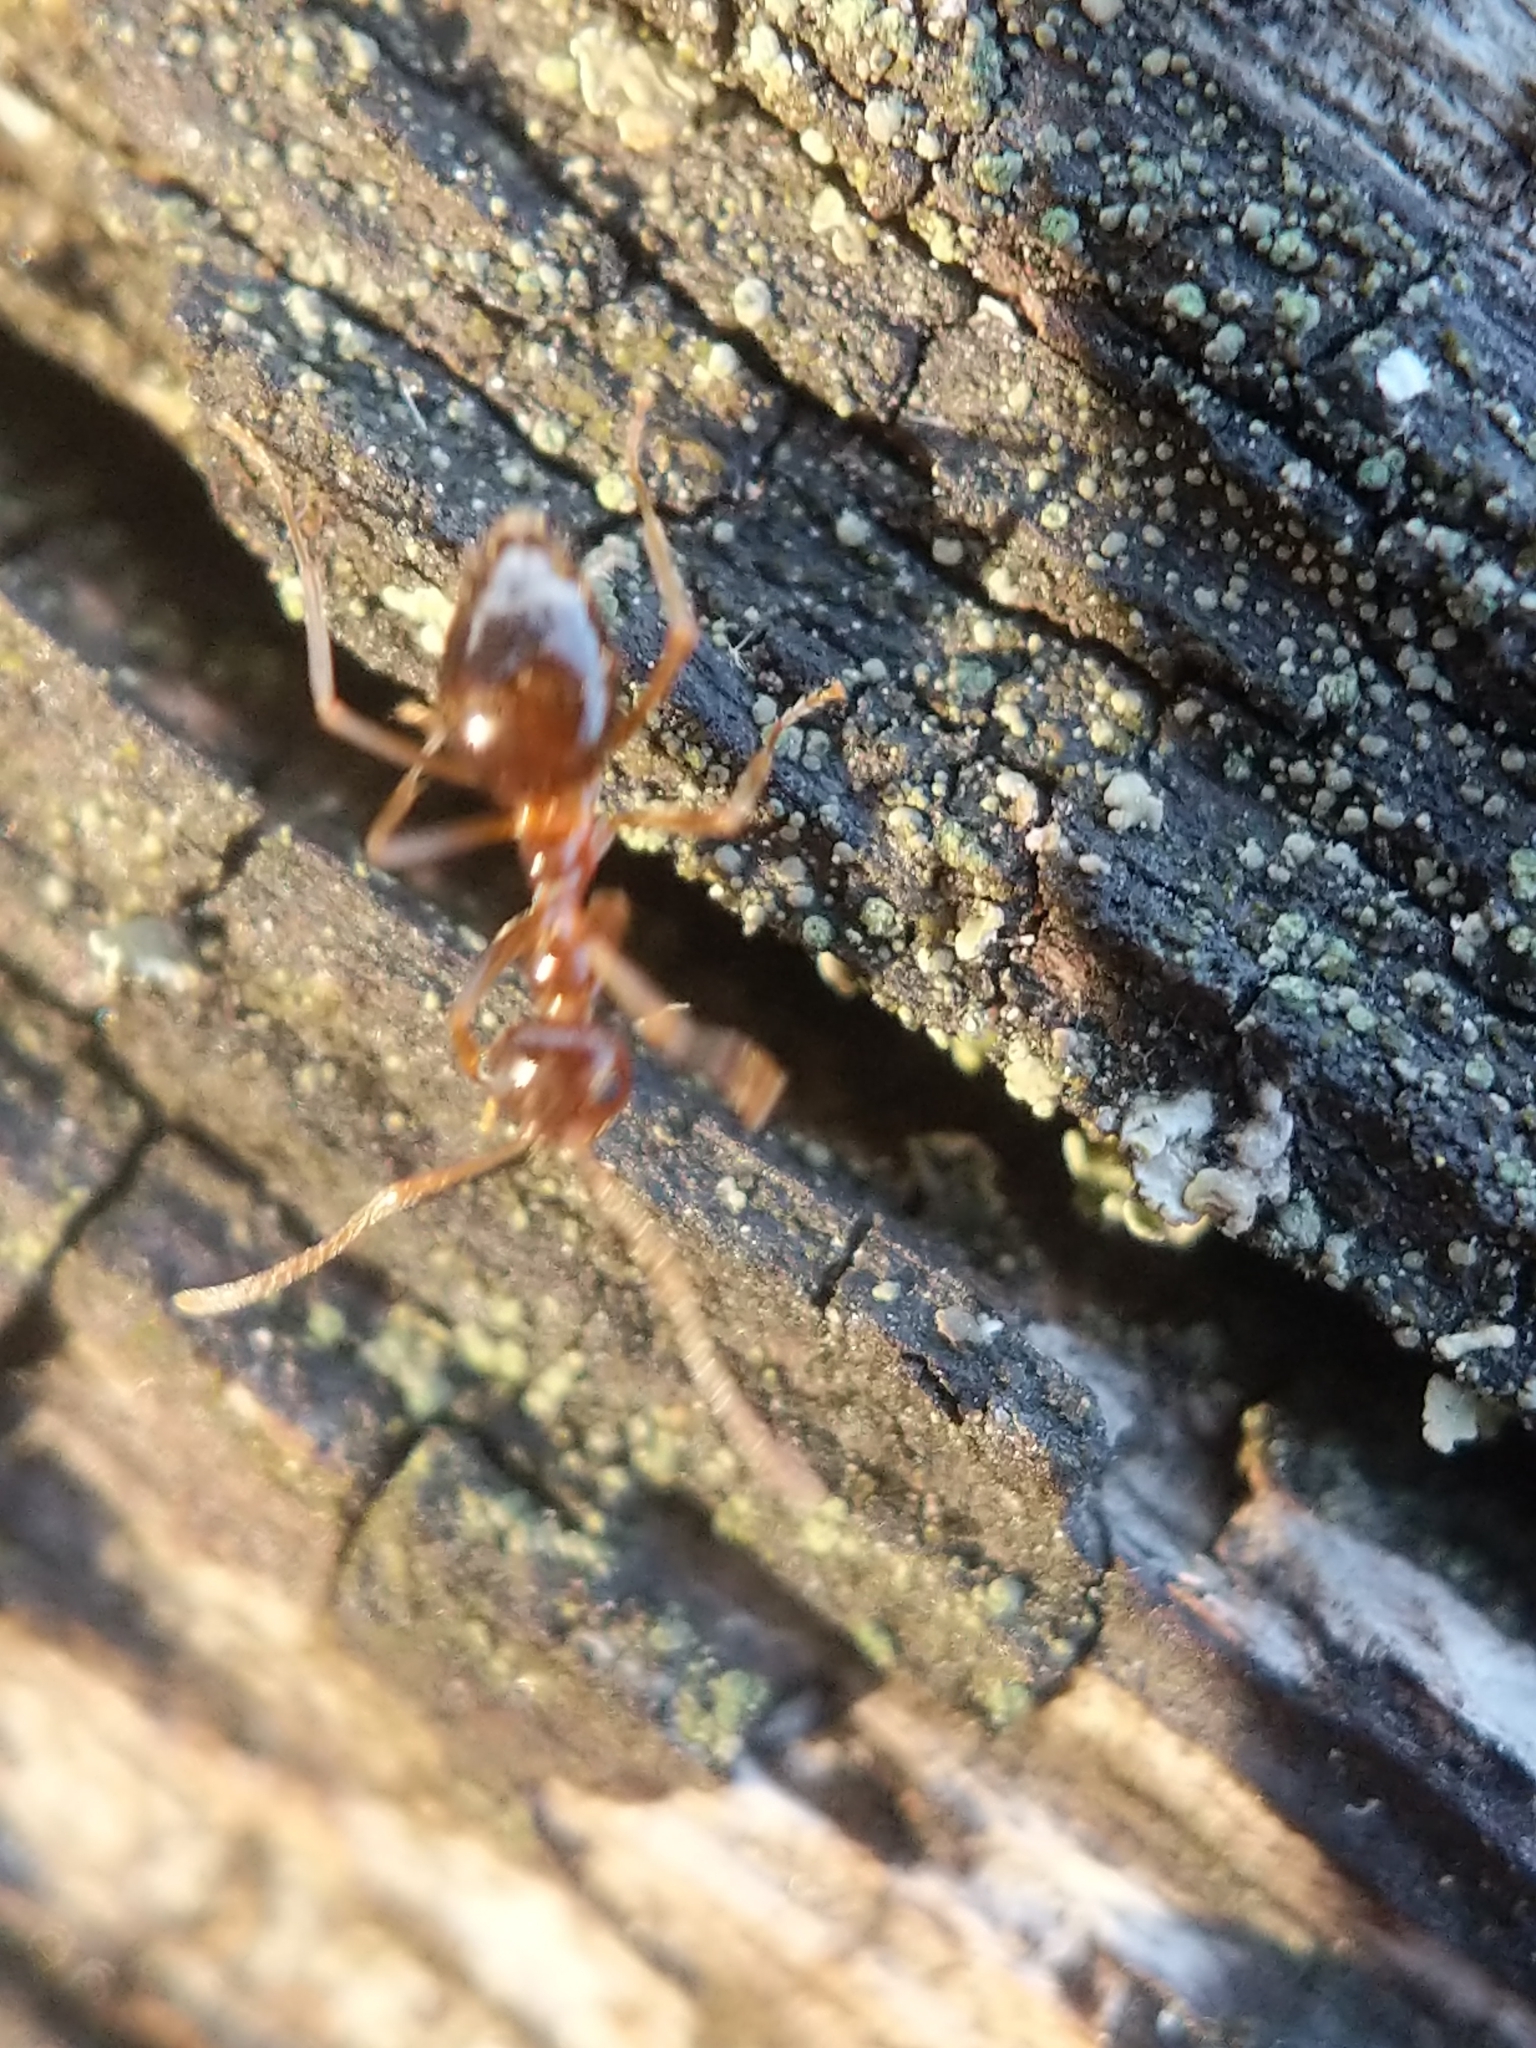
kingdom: Animalia
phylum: Arthropoda
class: Insecta
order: Hymenoptera
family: Formicidae
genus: Prenolepis
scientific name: Prenolepis imparis
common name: Small honey ant
